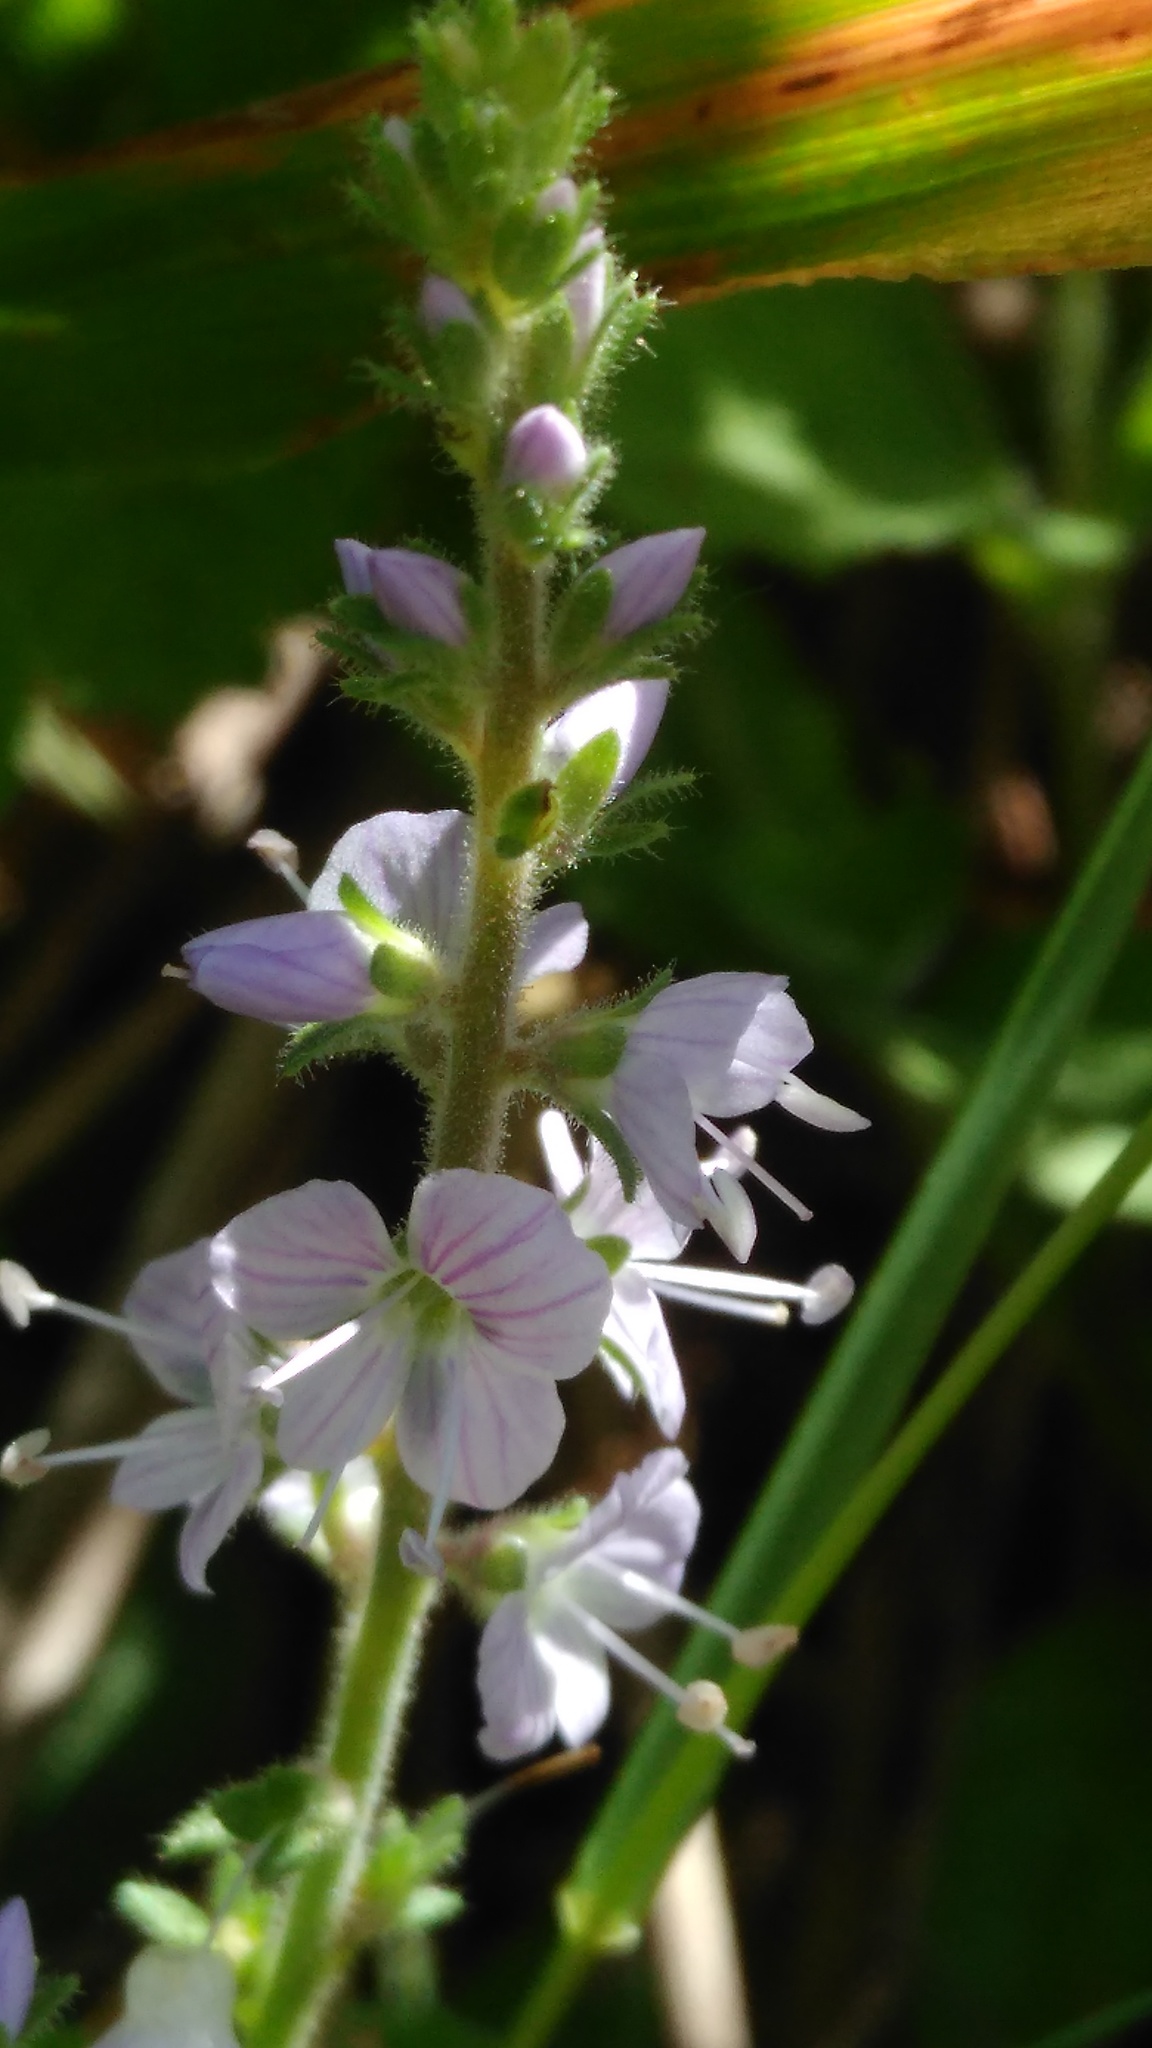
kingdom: Plantae
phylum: Tracheophyta
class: Magnoliopsida
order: Lamiales
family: Plantaginaceae
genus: Veronica
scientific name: Veronica officinalis
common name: Common speedwell
